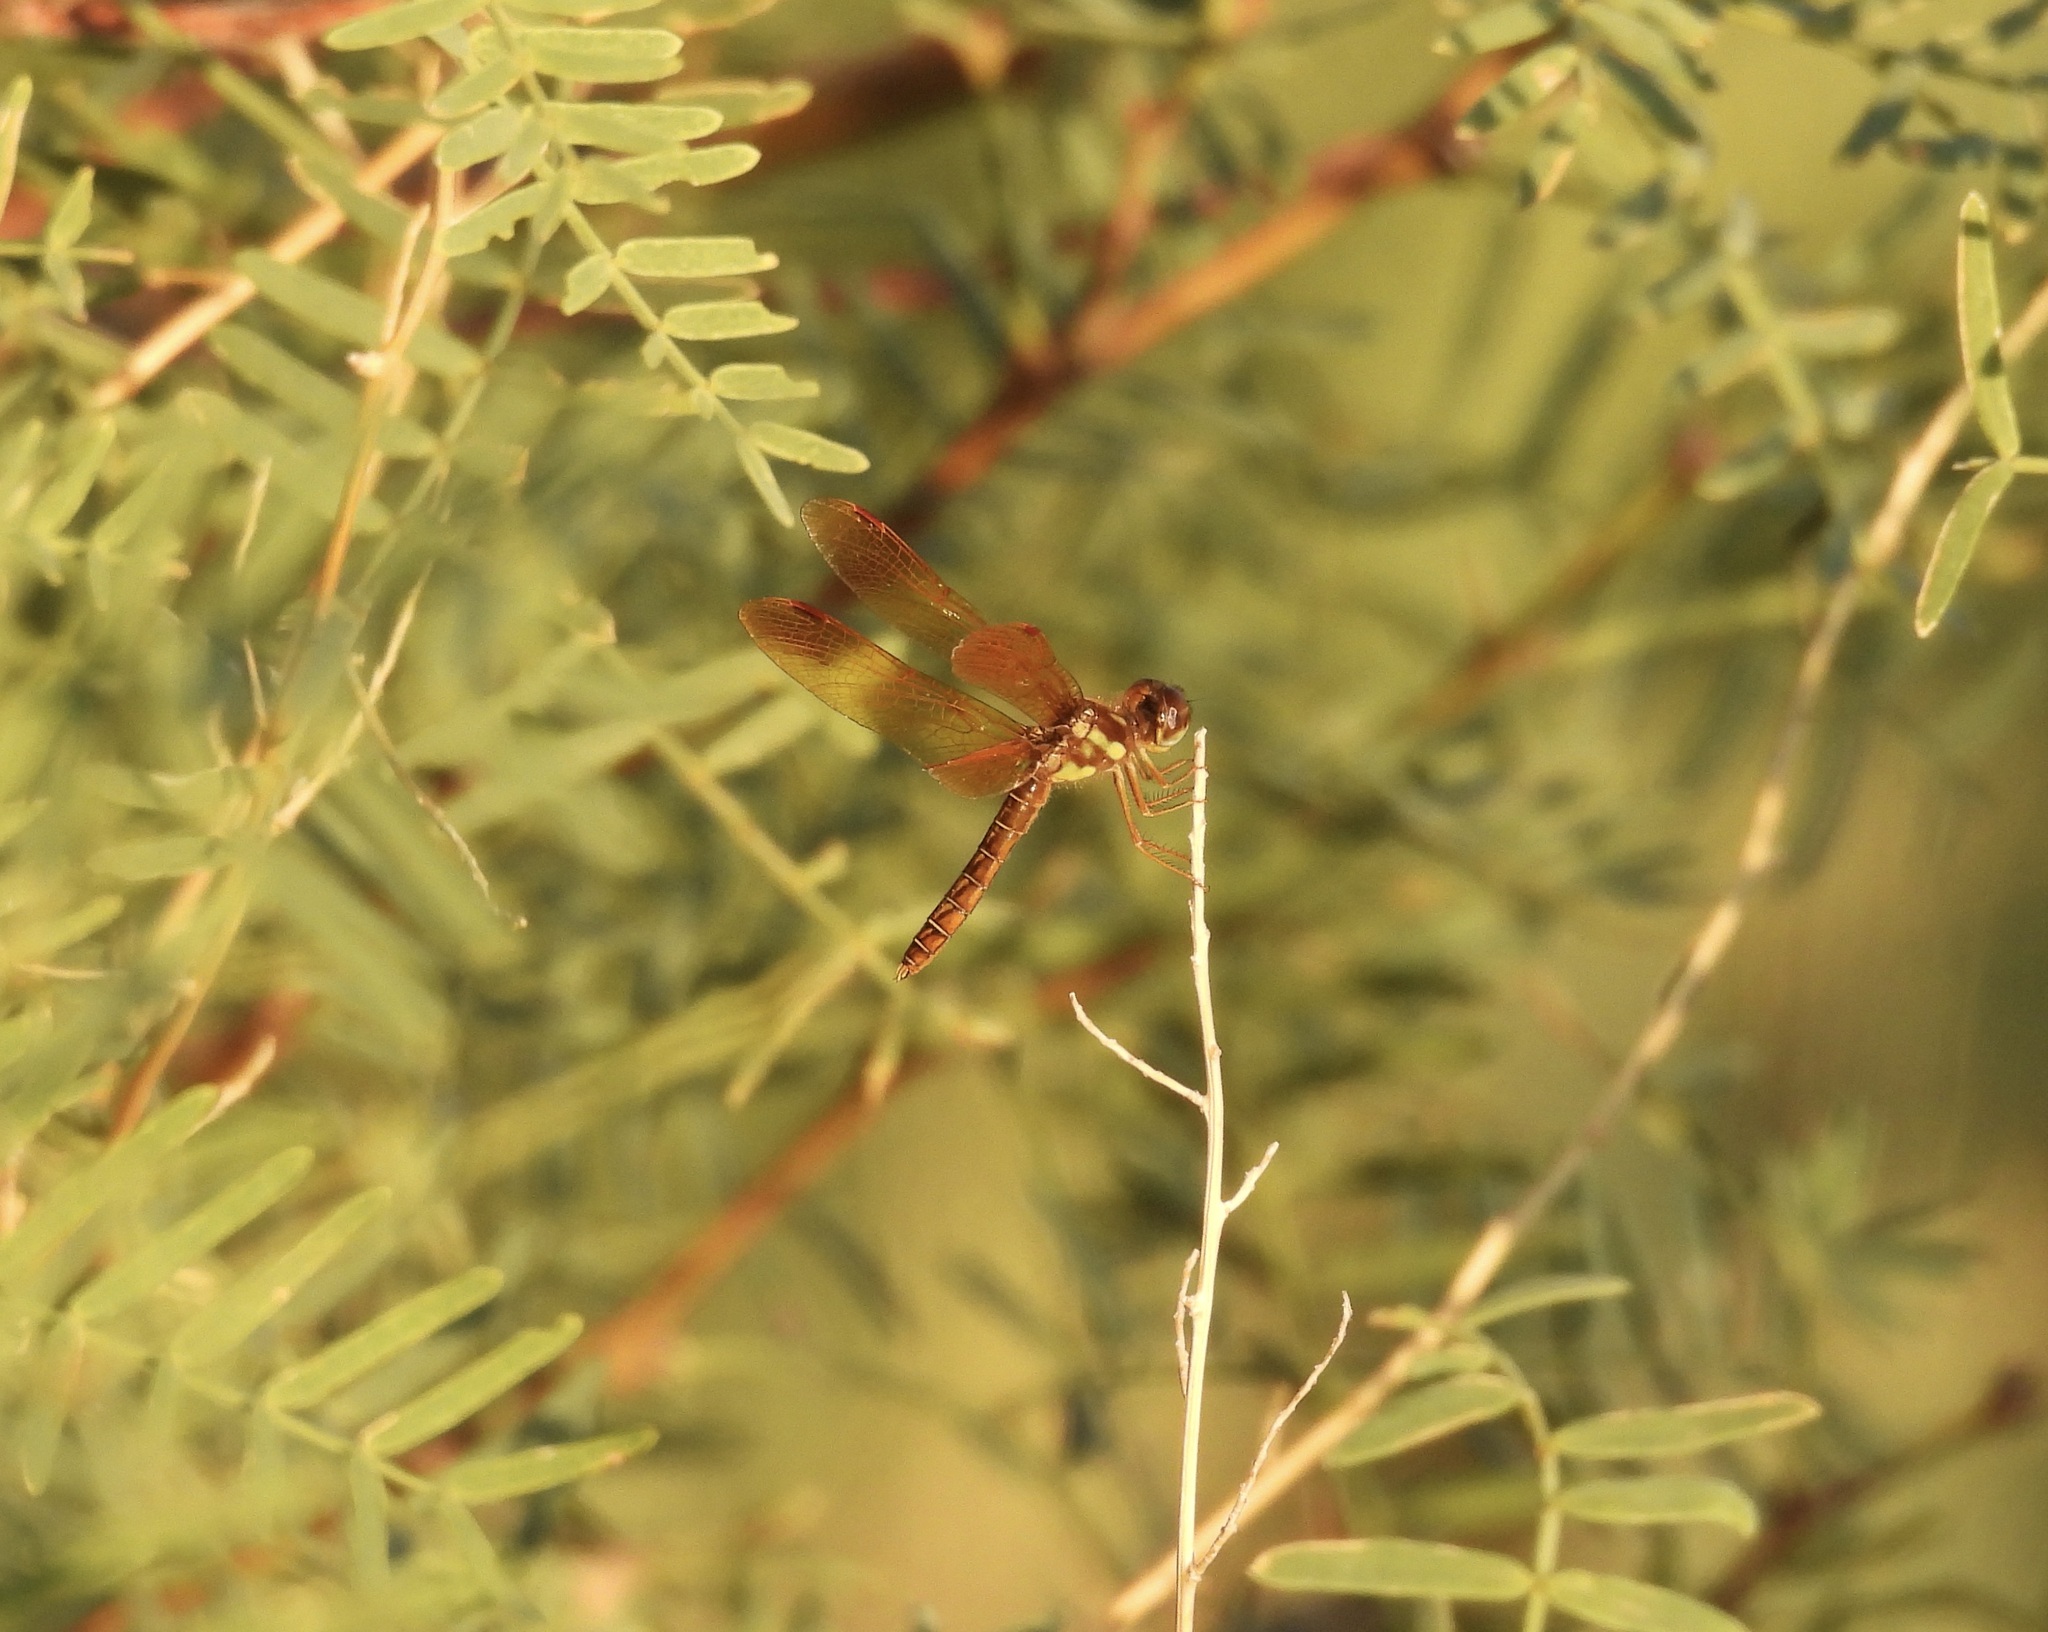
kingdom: Animalia
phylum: Arthropoda
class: Insecta
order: Odonata
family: Libellulidae
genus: Perithemis
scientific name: Perithemis tenera
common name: Eastern amberwing
